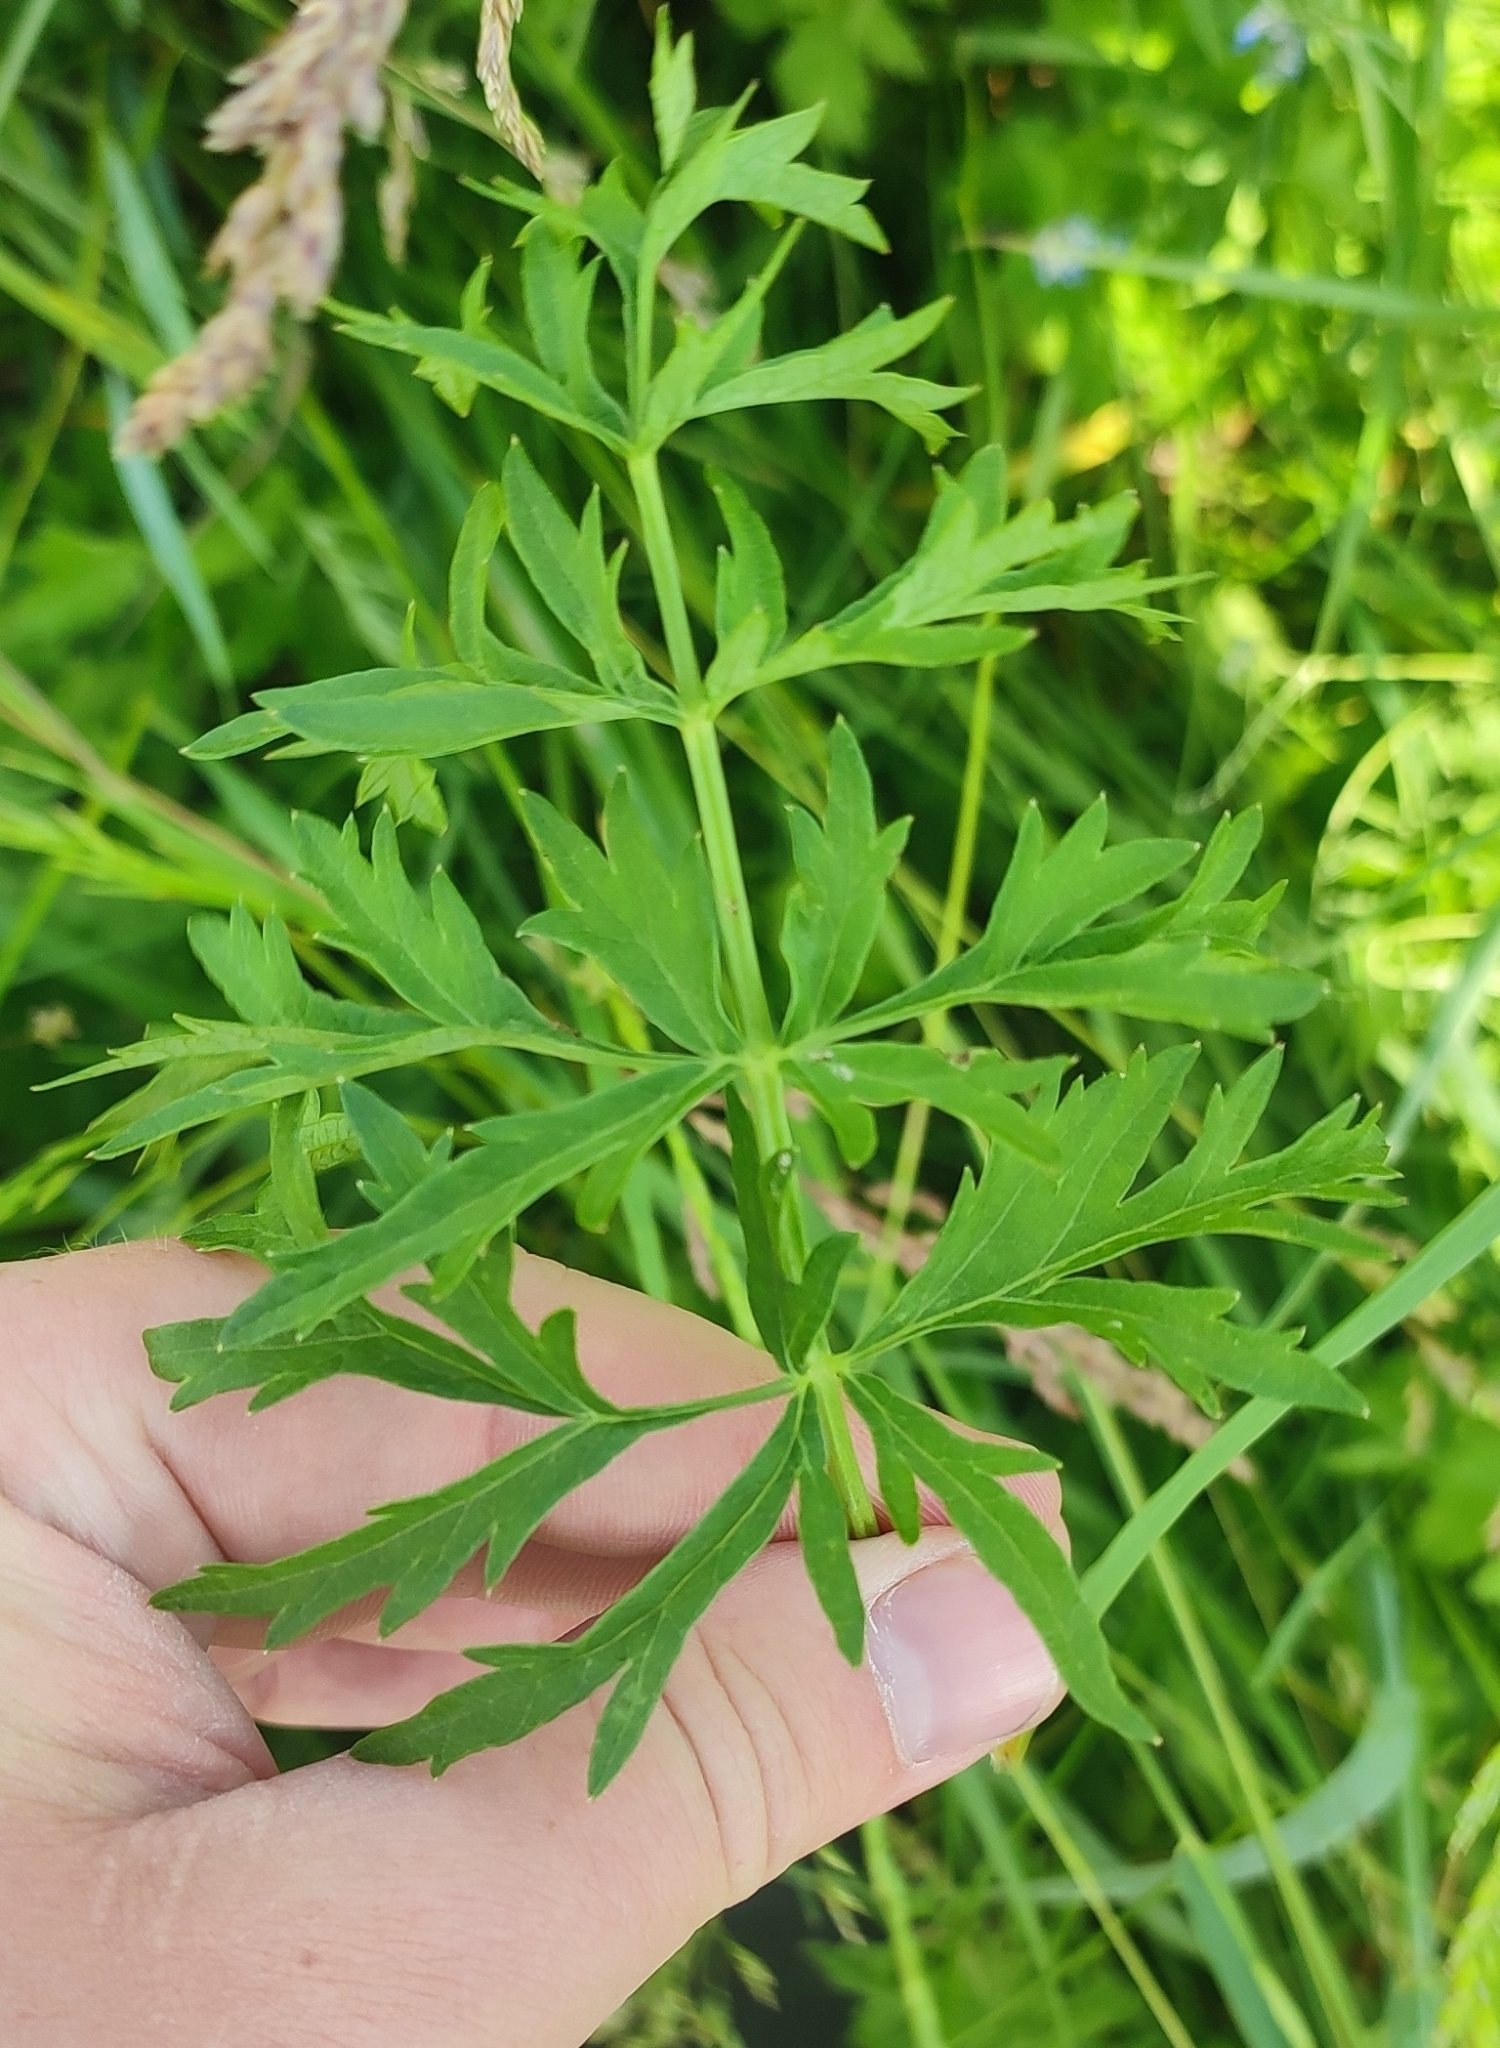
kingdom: Plantae
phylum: Tracheophyta
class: Magnoliopsida
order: Apiales
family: Apiaceae
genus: Seseli
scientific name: Seseli libanotis
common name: Mooncarrot
